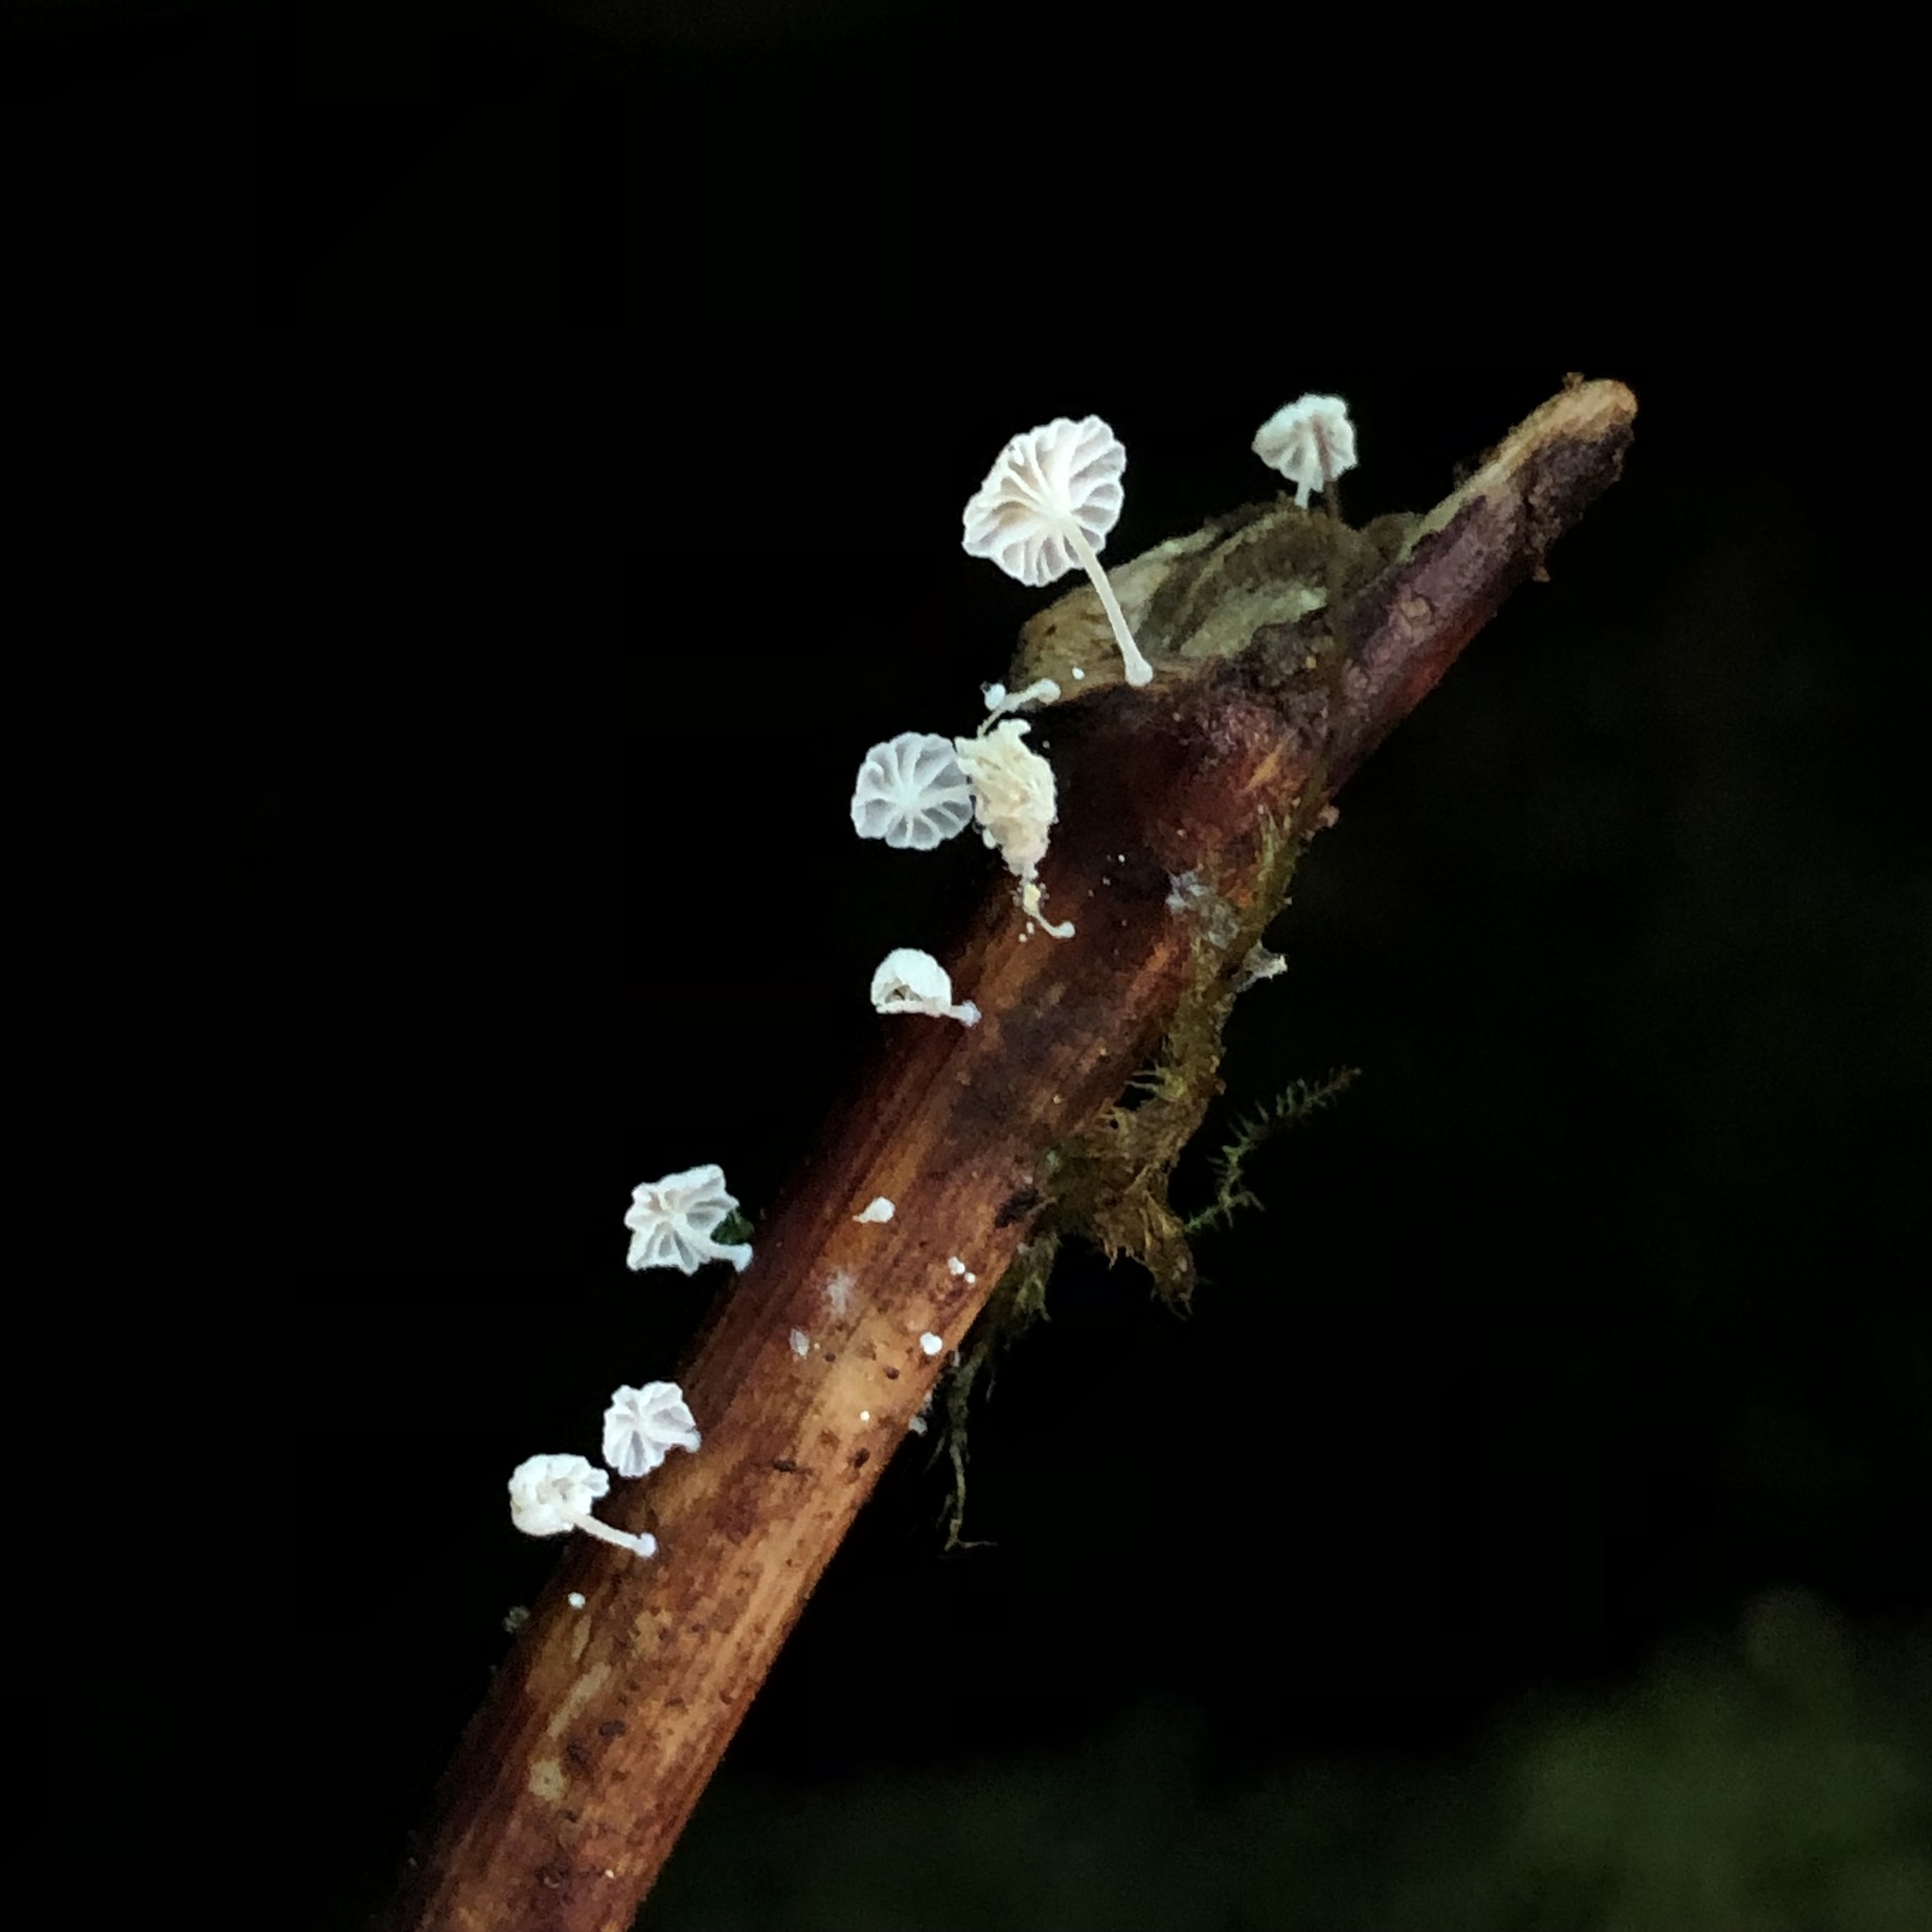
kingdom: Fungi
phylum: Basidiomycota
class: Agaricomycetes
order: Agaricales
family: Omphalotaceae
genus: Marasmiellus
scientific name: Marasmiellus candidus
